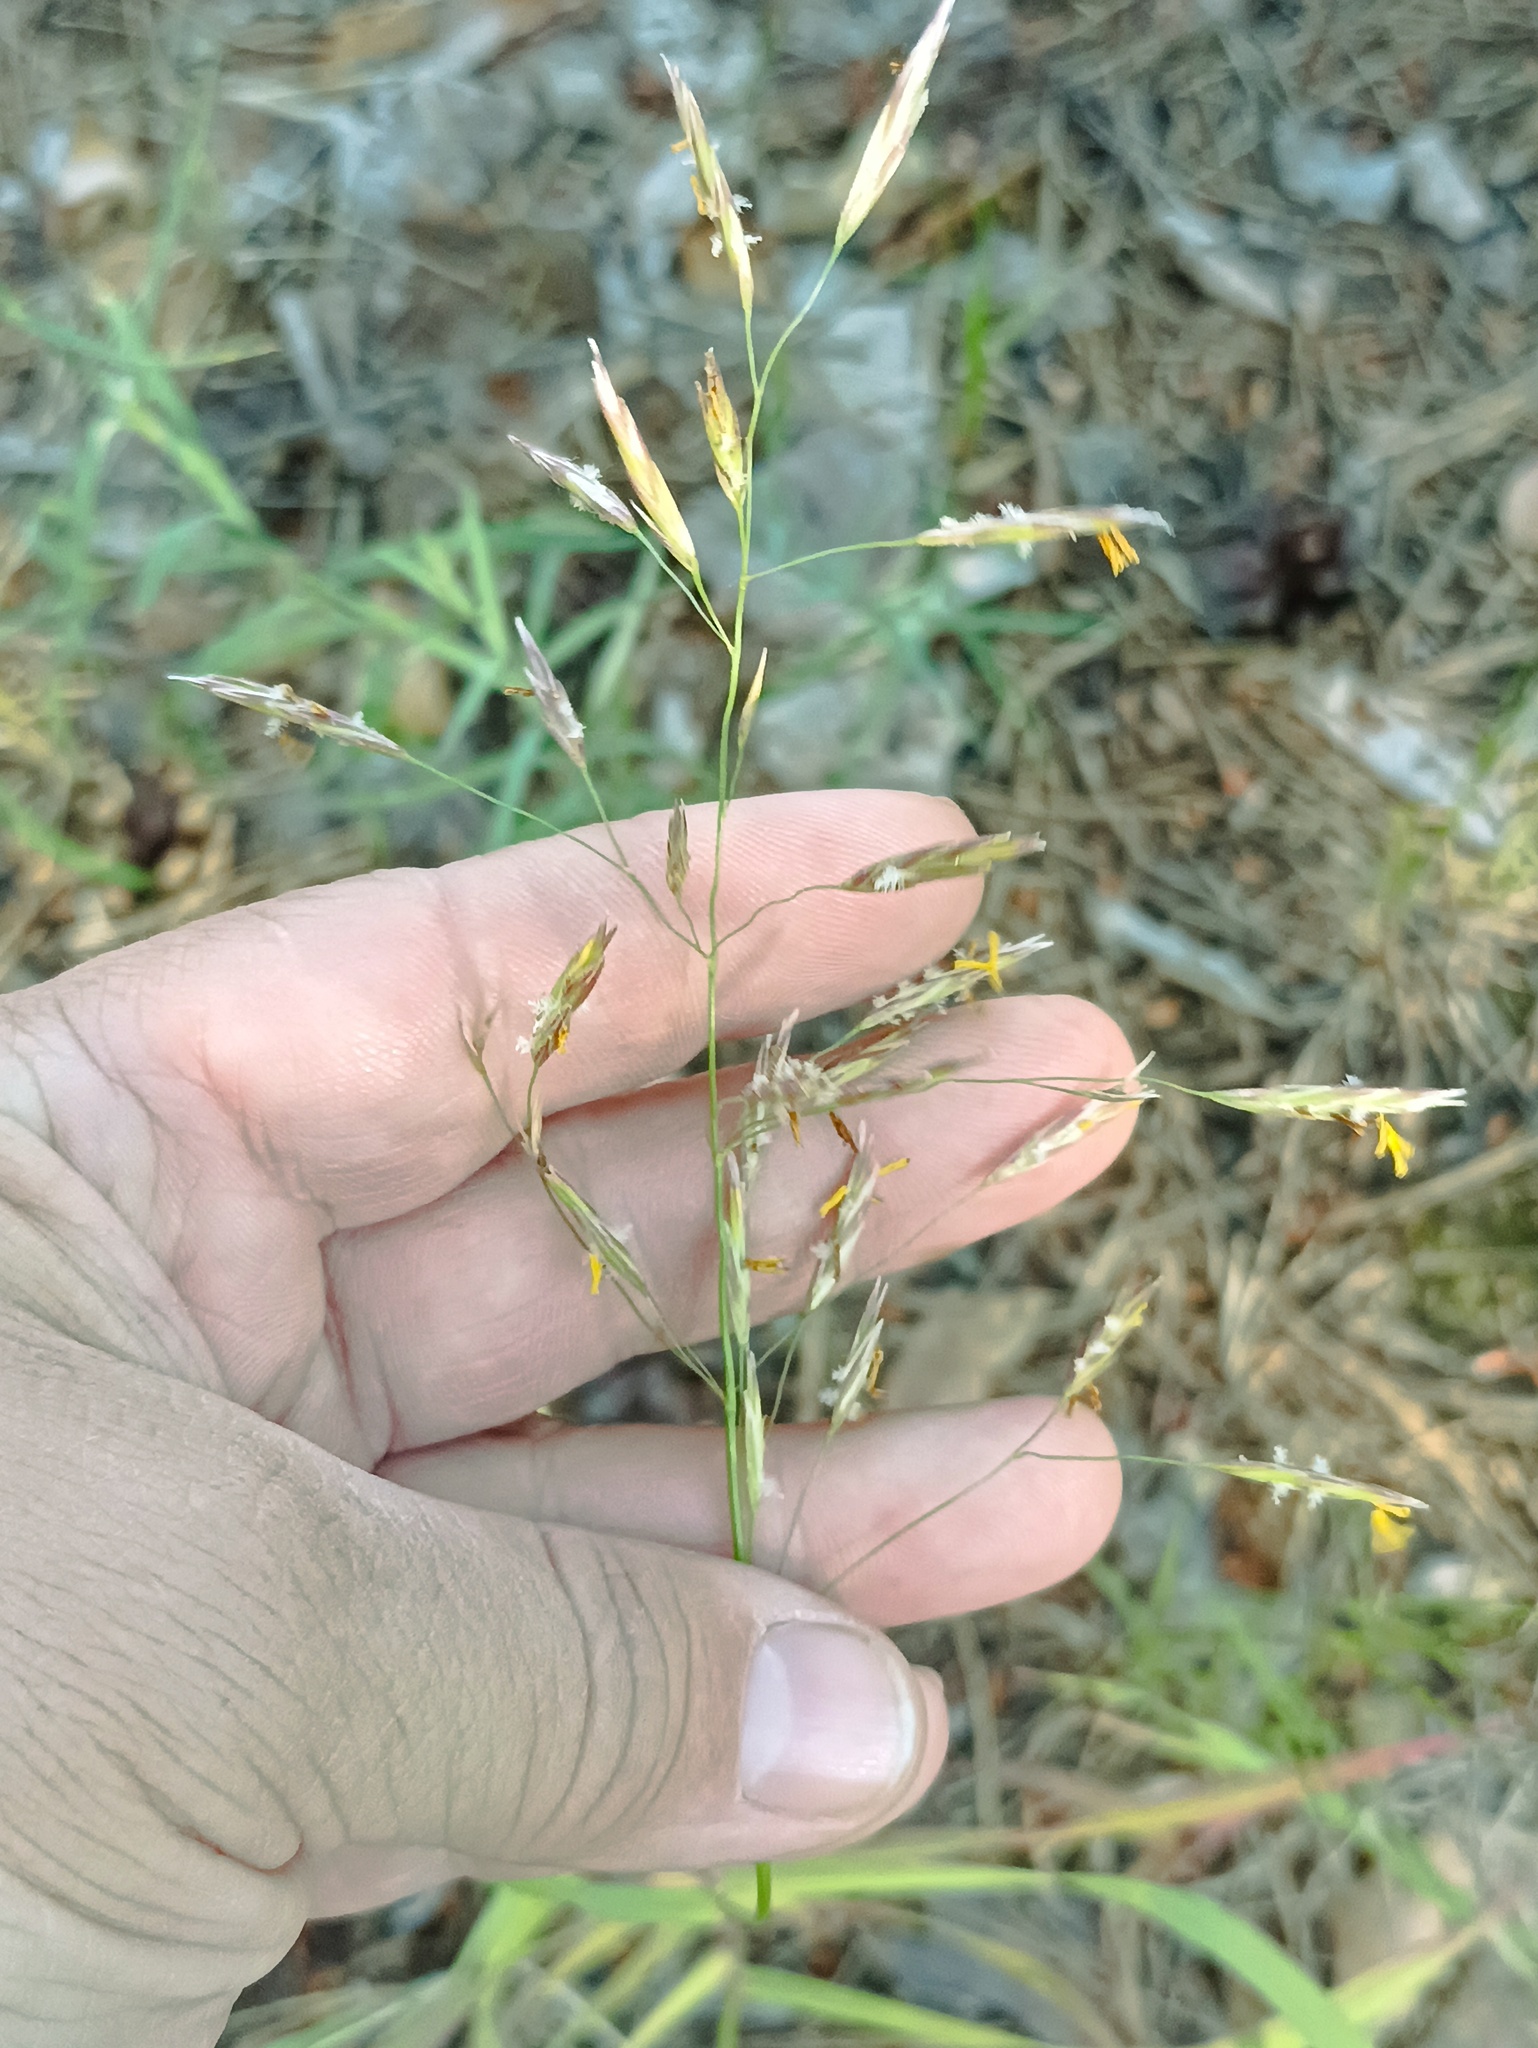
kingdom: Plantae
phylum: Tracheophyta
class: Liliopsida
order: Poales
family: Poaceae
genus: Bromus
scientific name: Bromus inermis
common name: Smooth brome
